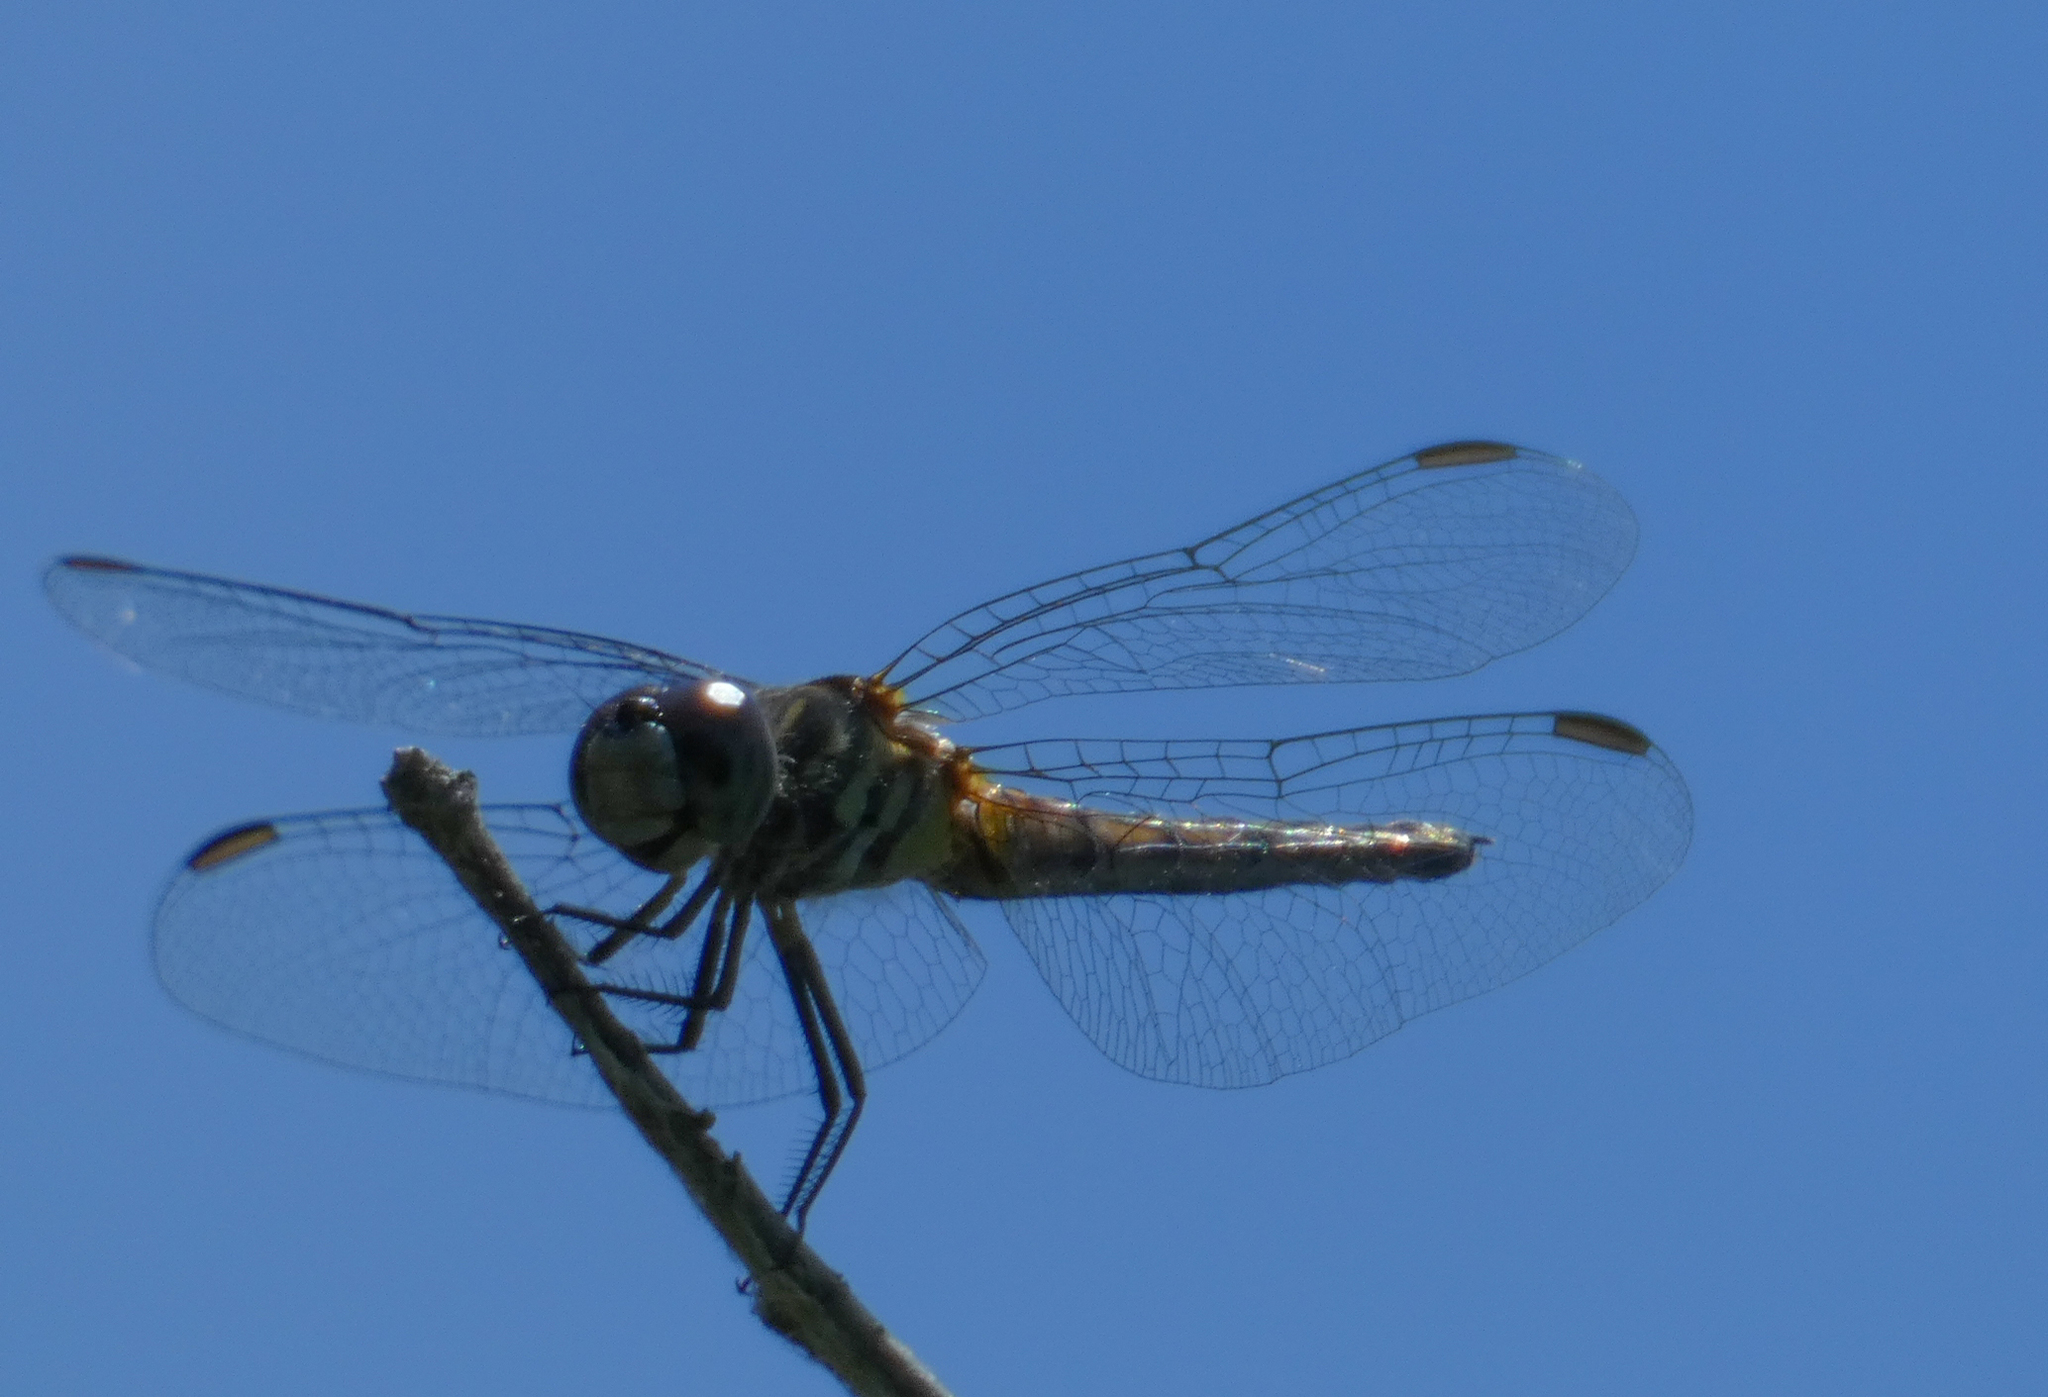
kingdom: Animalia
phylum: Arthropoda
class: Insecta
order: Odonata
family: Libellulidae
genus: Pachydiplax
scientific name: Pachydiplax longipennis
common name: Blue dasher
